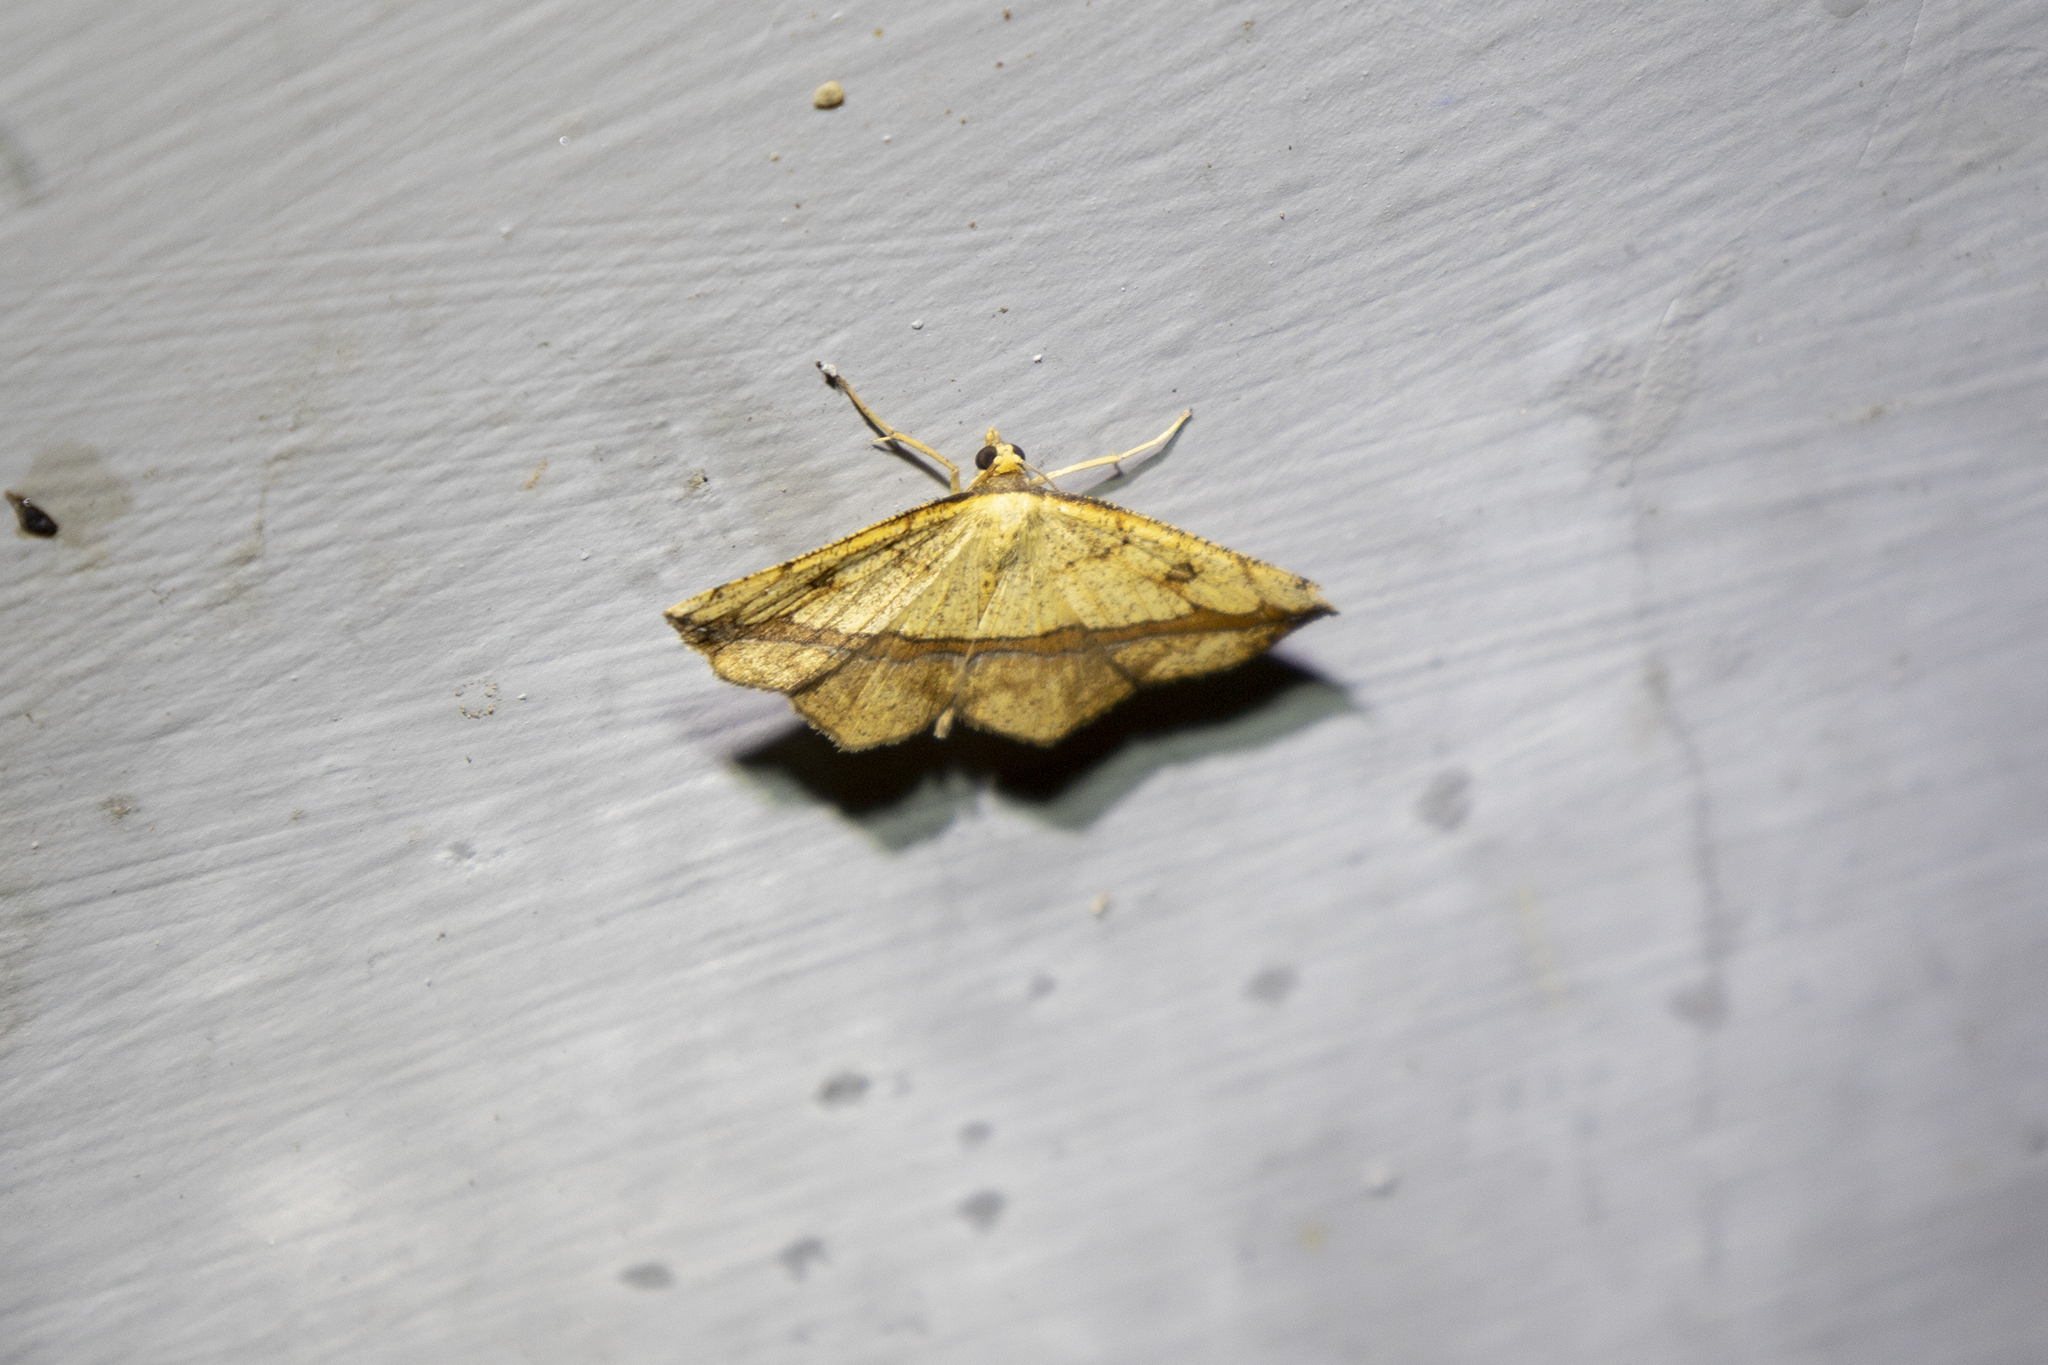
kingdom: Animalia
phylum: Arthropoda
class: Insecta
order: Lepidoptera
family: Geometridae
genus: Entomopteryx
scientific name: Entomopteryx obliquilinea
